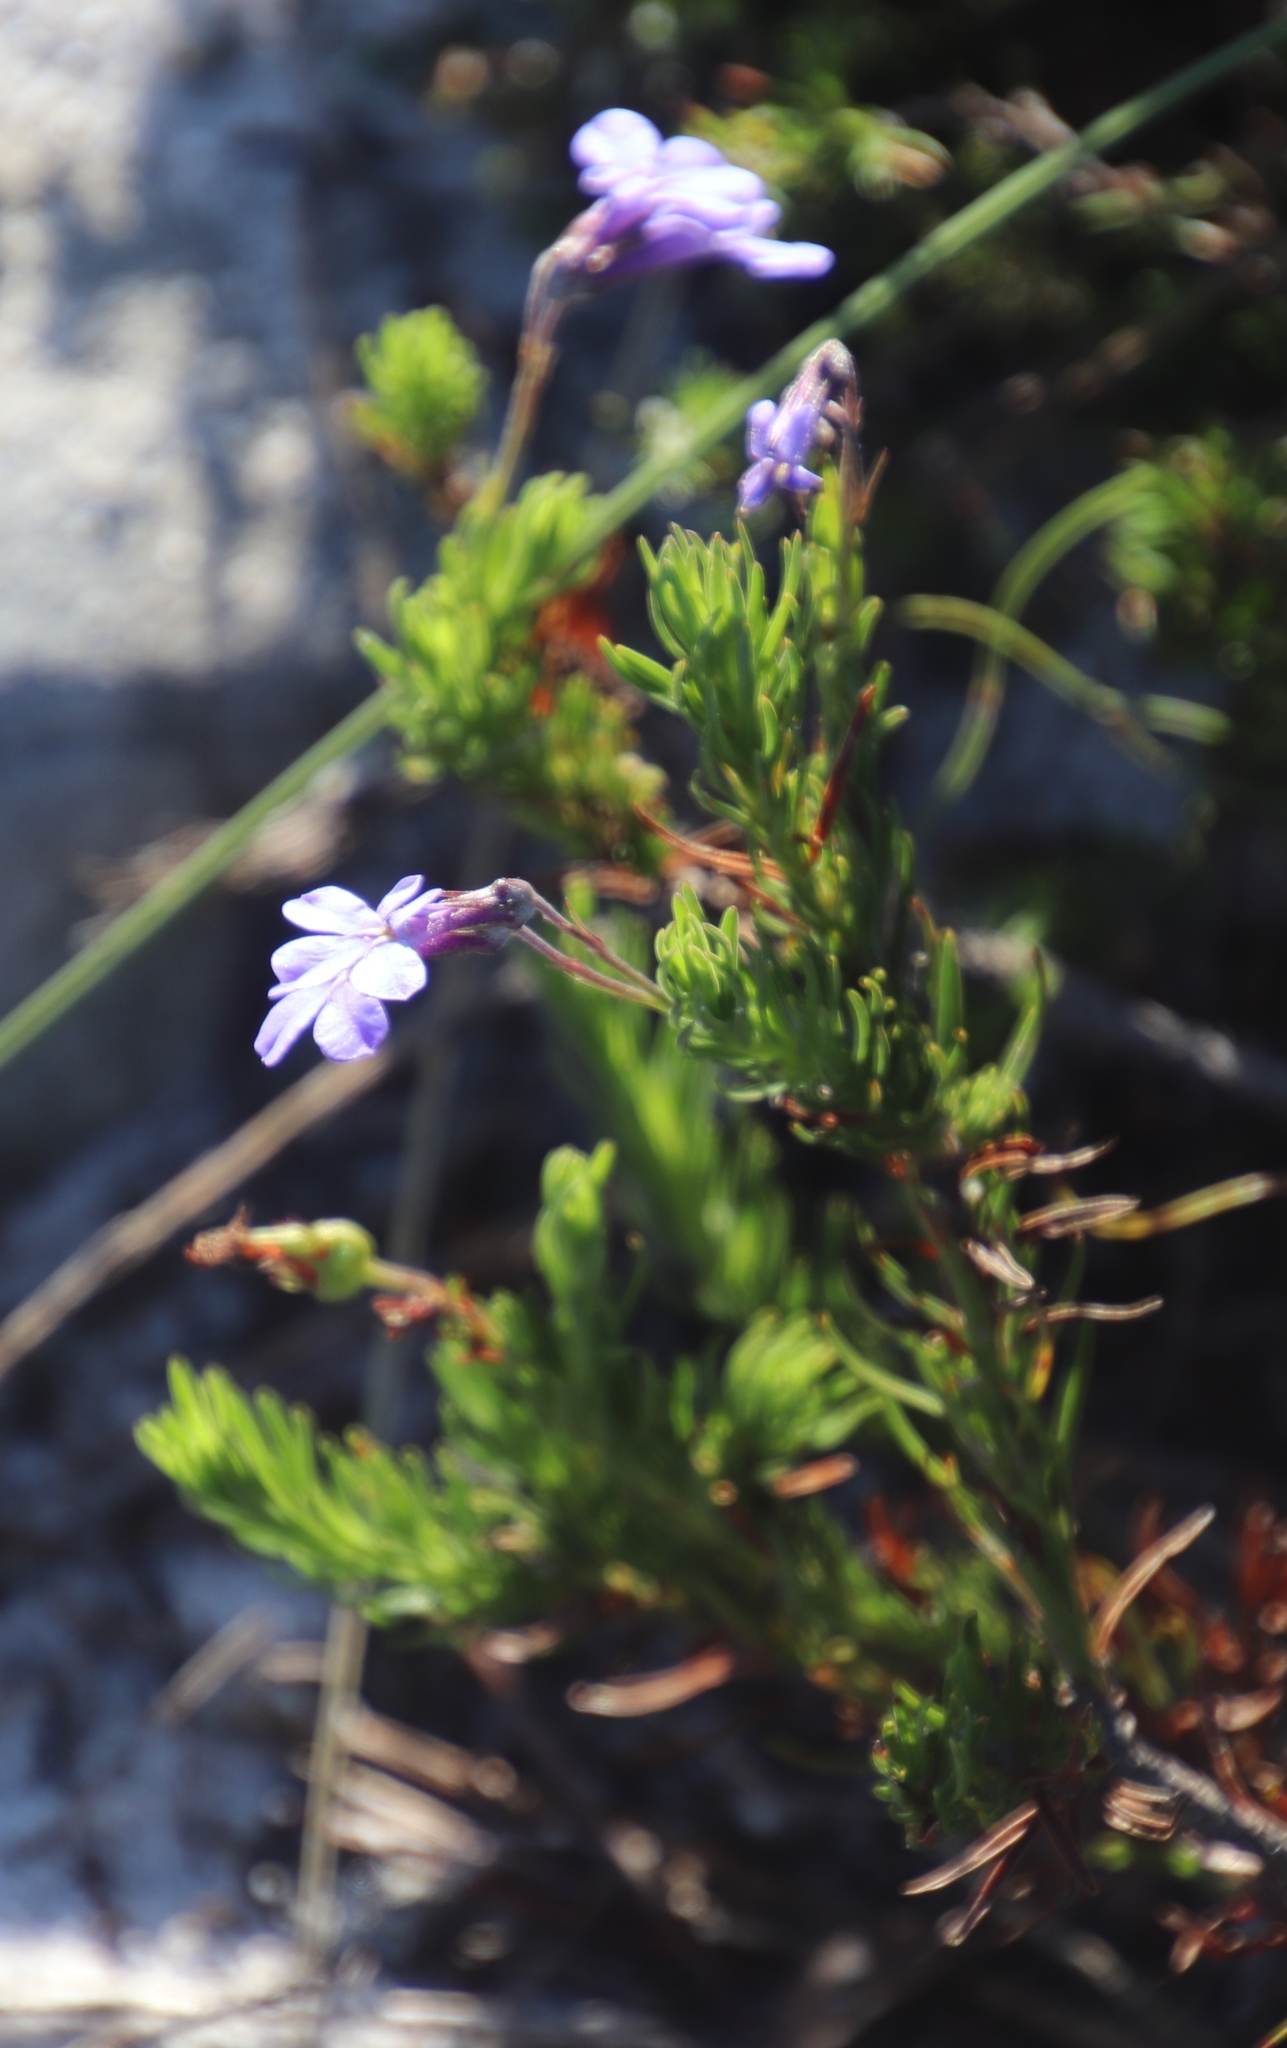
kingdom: Plantae
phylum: Tracheophyta
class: Magnoliopsida
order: Asterales
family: Campanulaceae
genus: Lobelia
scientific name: Lobelia pinifolia
